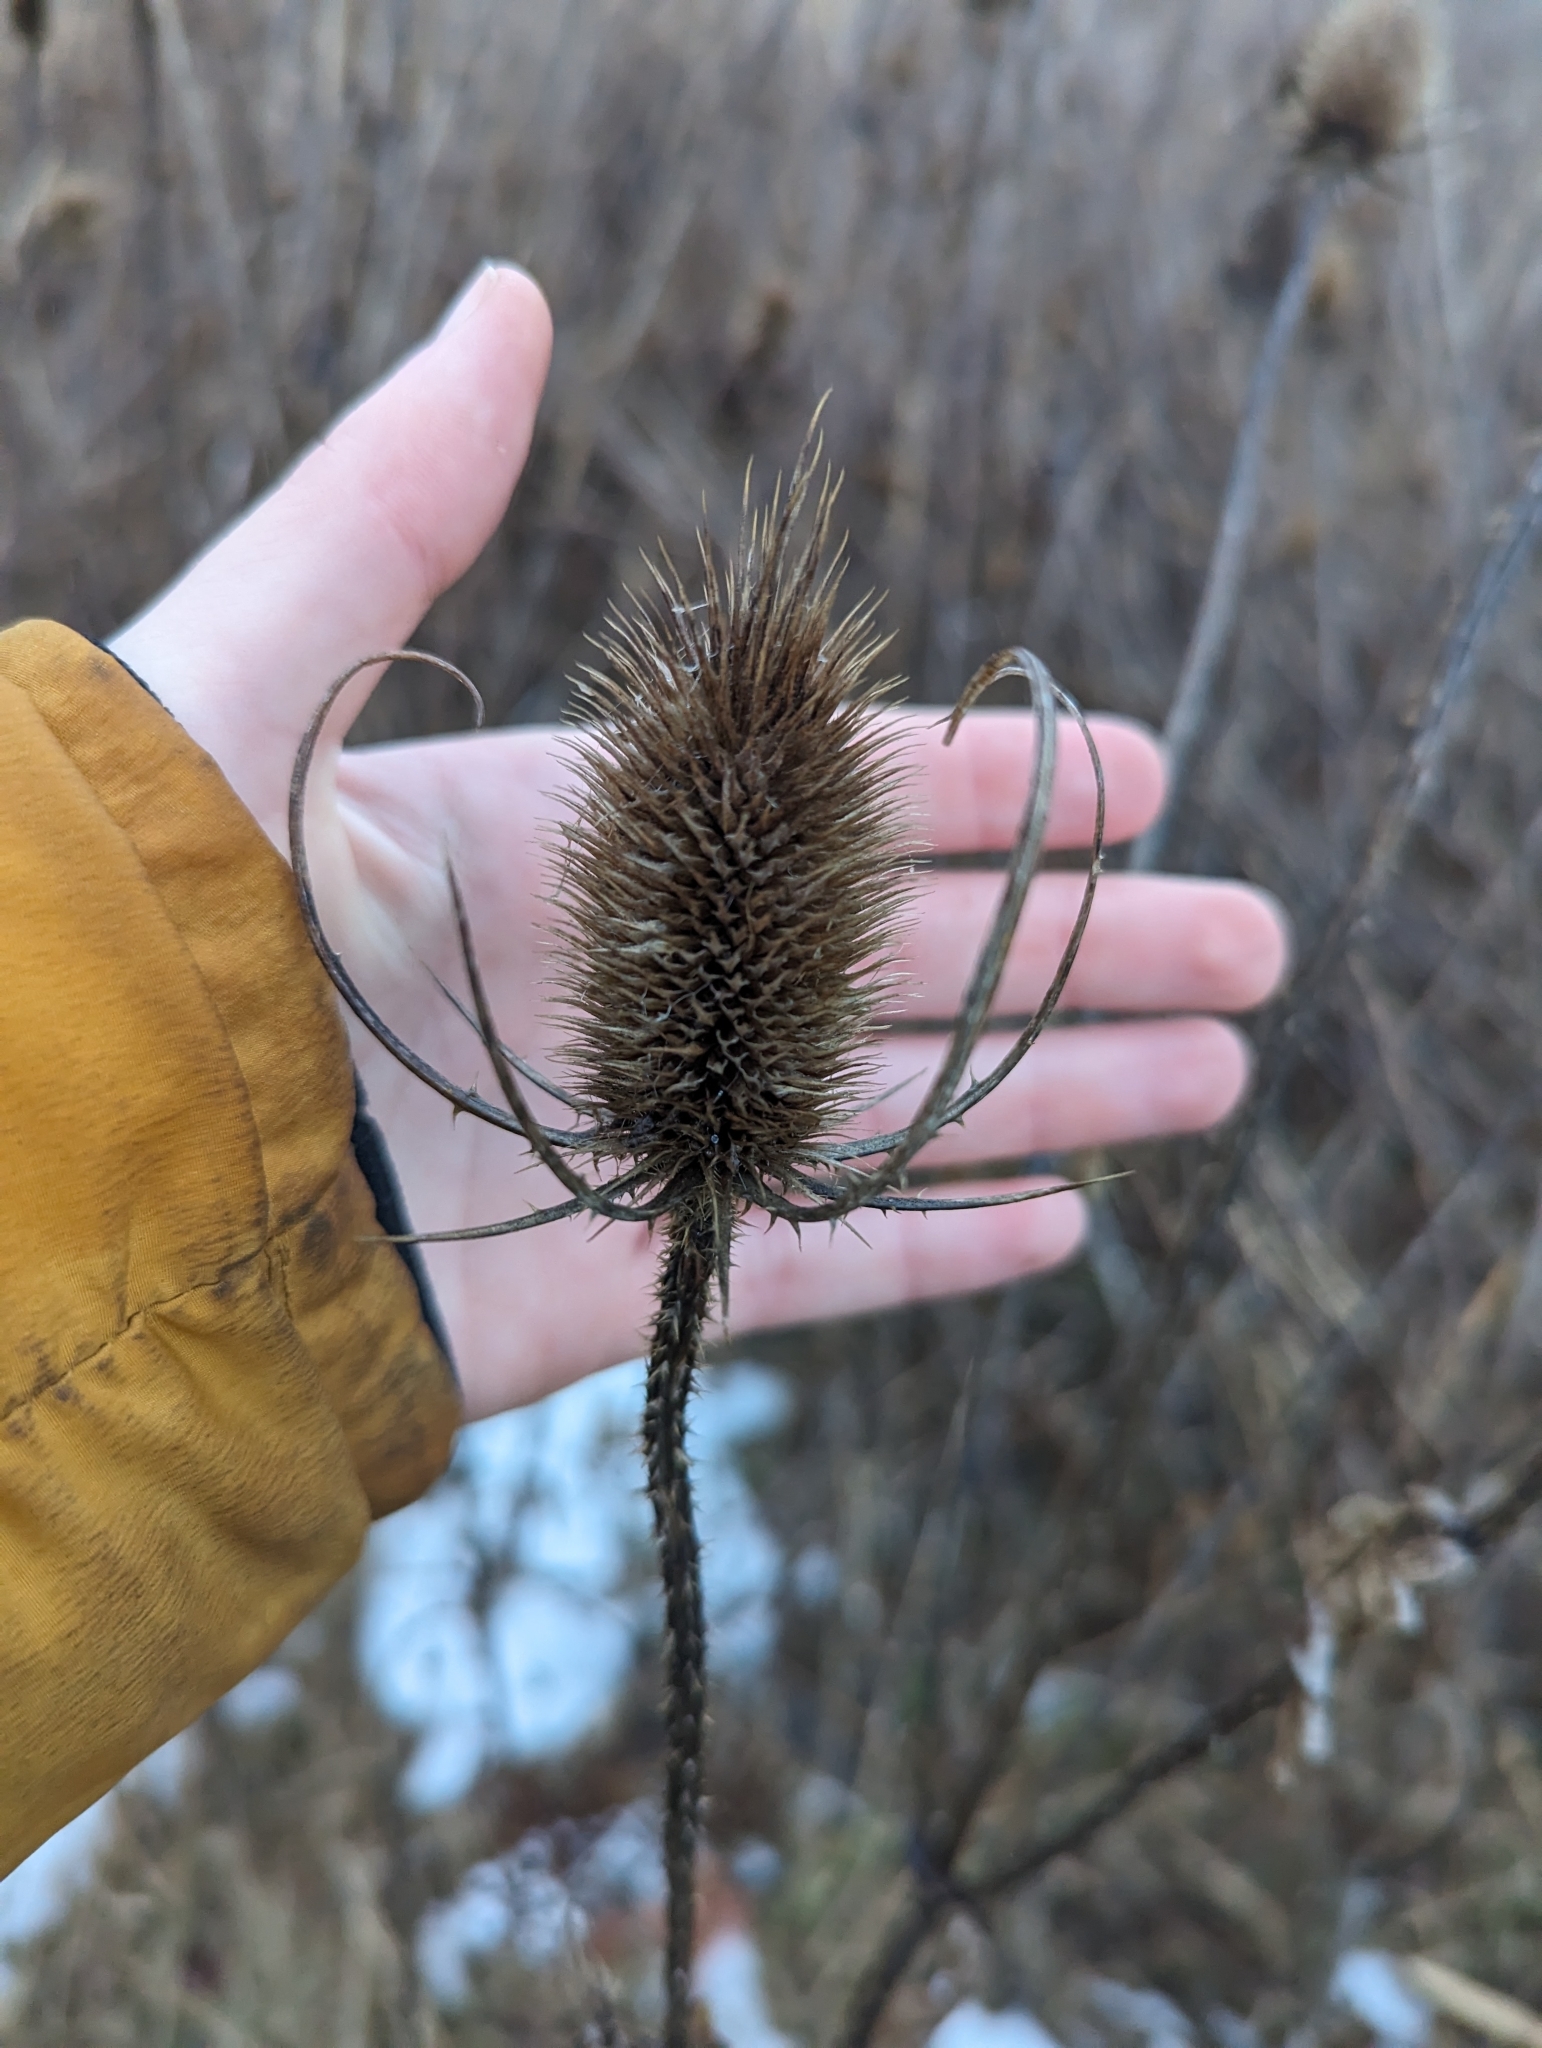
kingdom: Plantae
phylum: Tracheophyta
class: Magnoliopsida
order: Dipsacales
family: Caprifoliaceae
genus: Dipsacus
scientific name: Dipsacus fullonum
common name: Teasel
